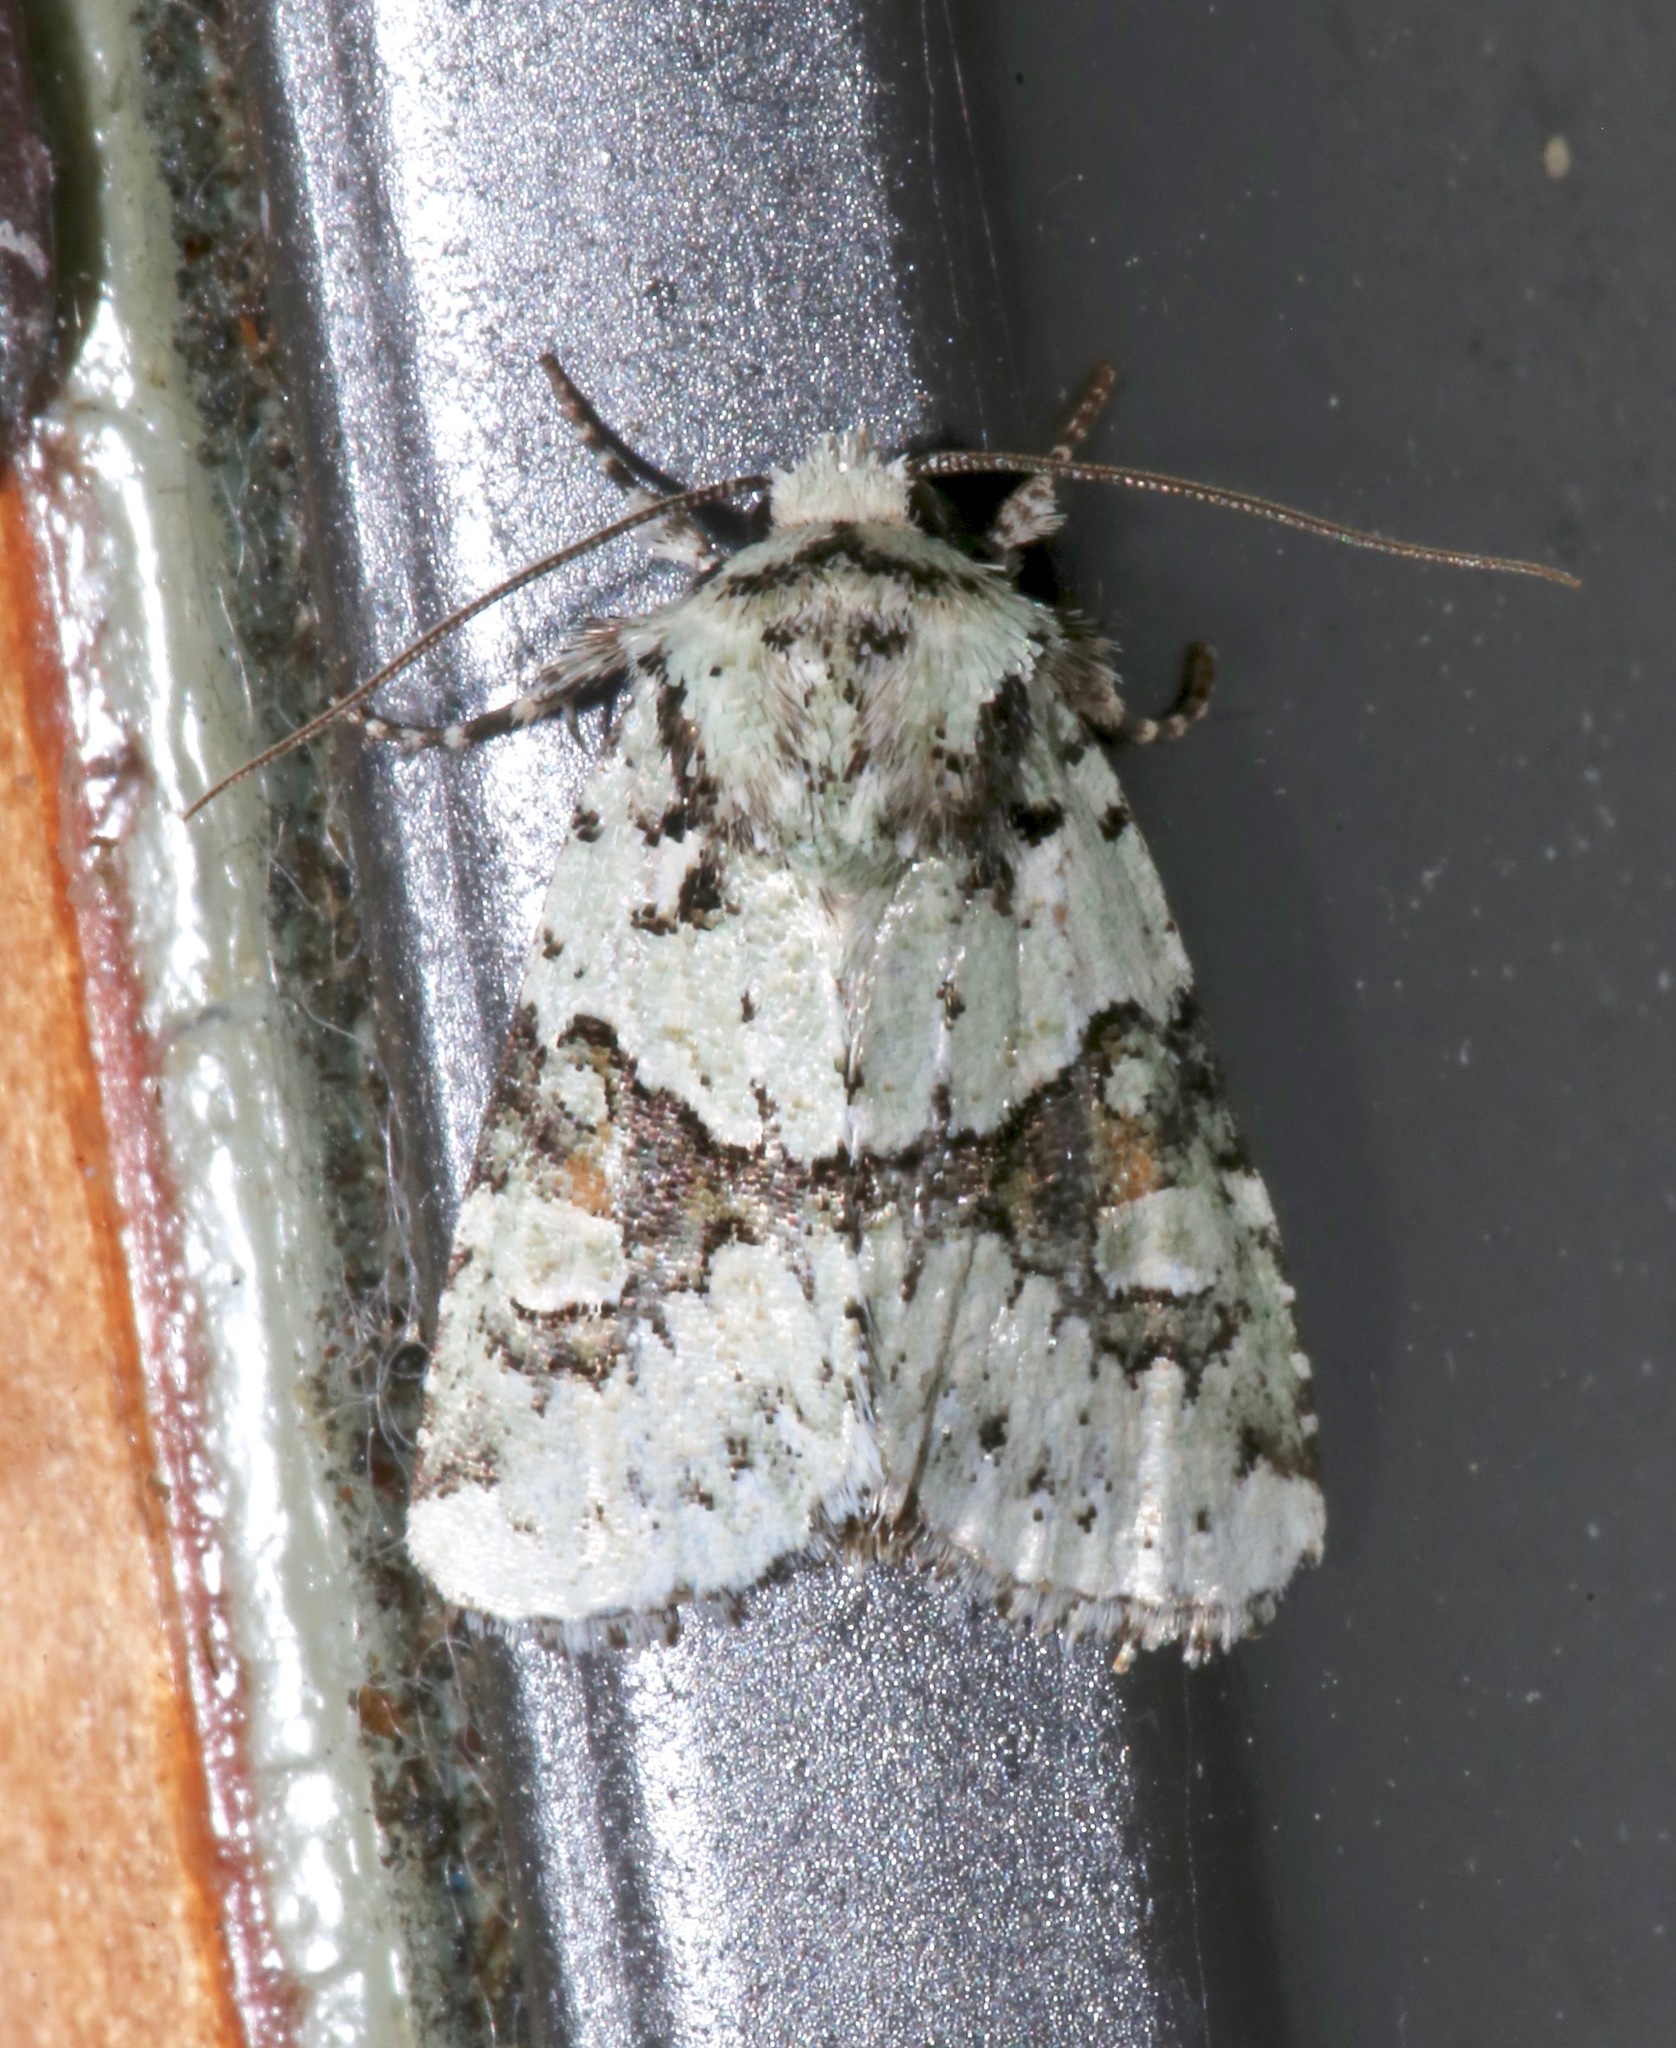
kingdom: Animalia
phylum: Arthropoda
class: Insecta
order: Lepidoptera
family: Noctuidae
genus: Lacinipolia
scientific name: Lacinipolia implicata
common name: Implicit arches
